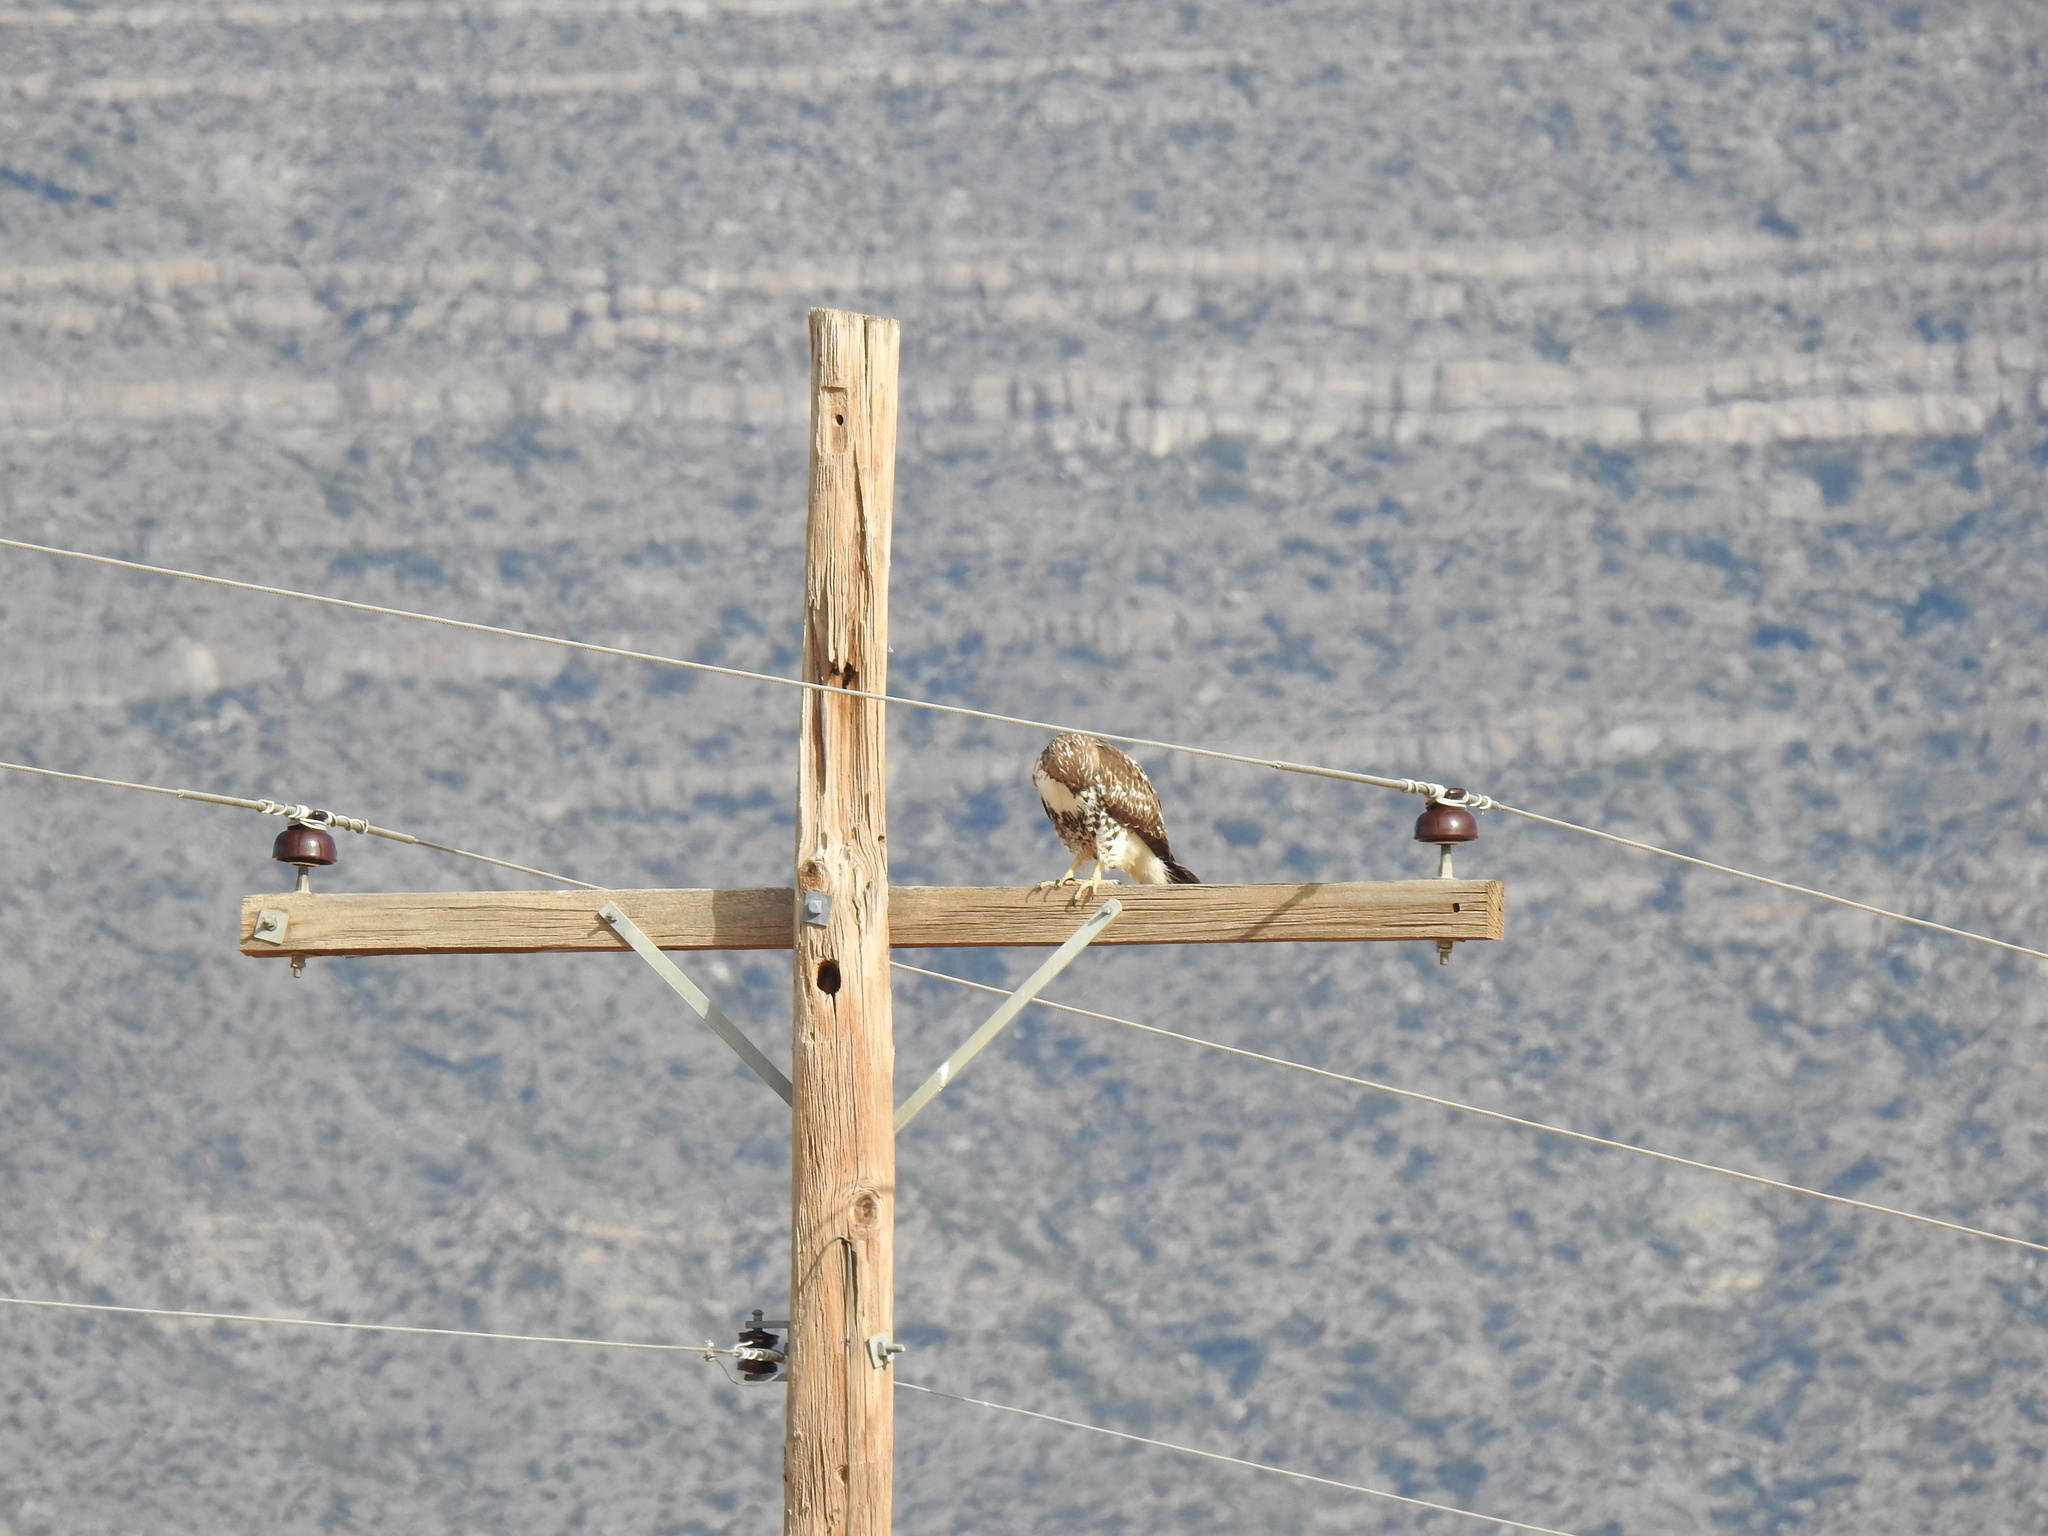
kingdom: Animalia
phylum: Chordata
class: Aves
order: Accipitriformes
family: Accipitridae
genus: Buteo
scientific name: Buteo jamaicensis
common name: Red-tailed hawk
